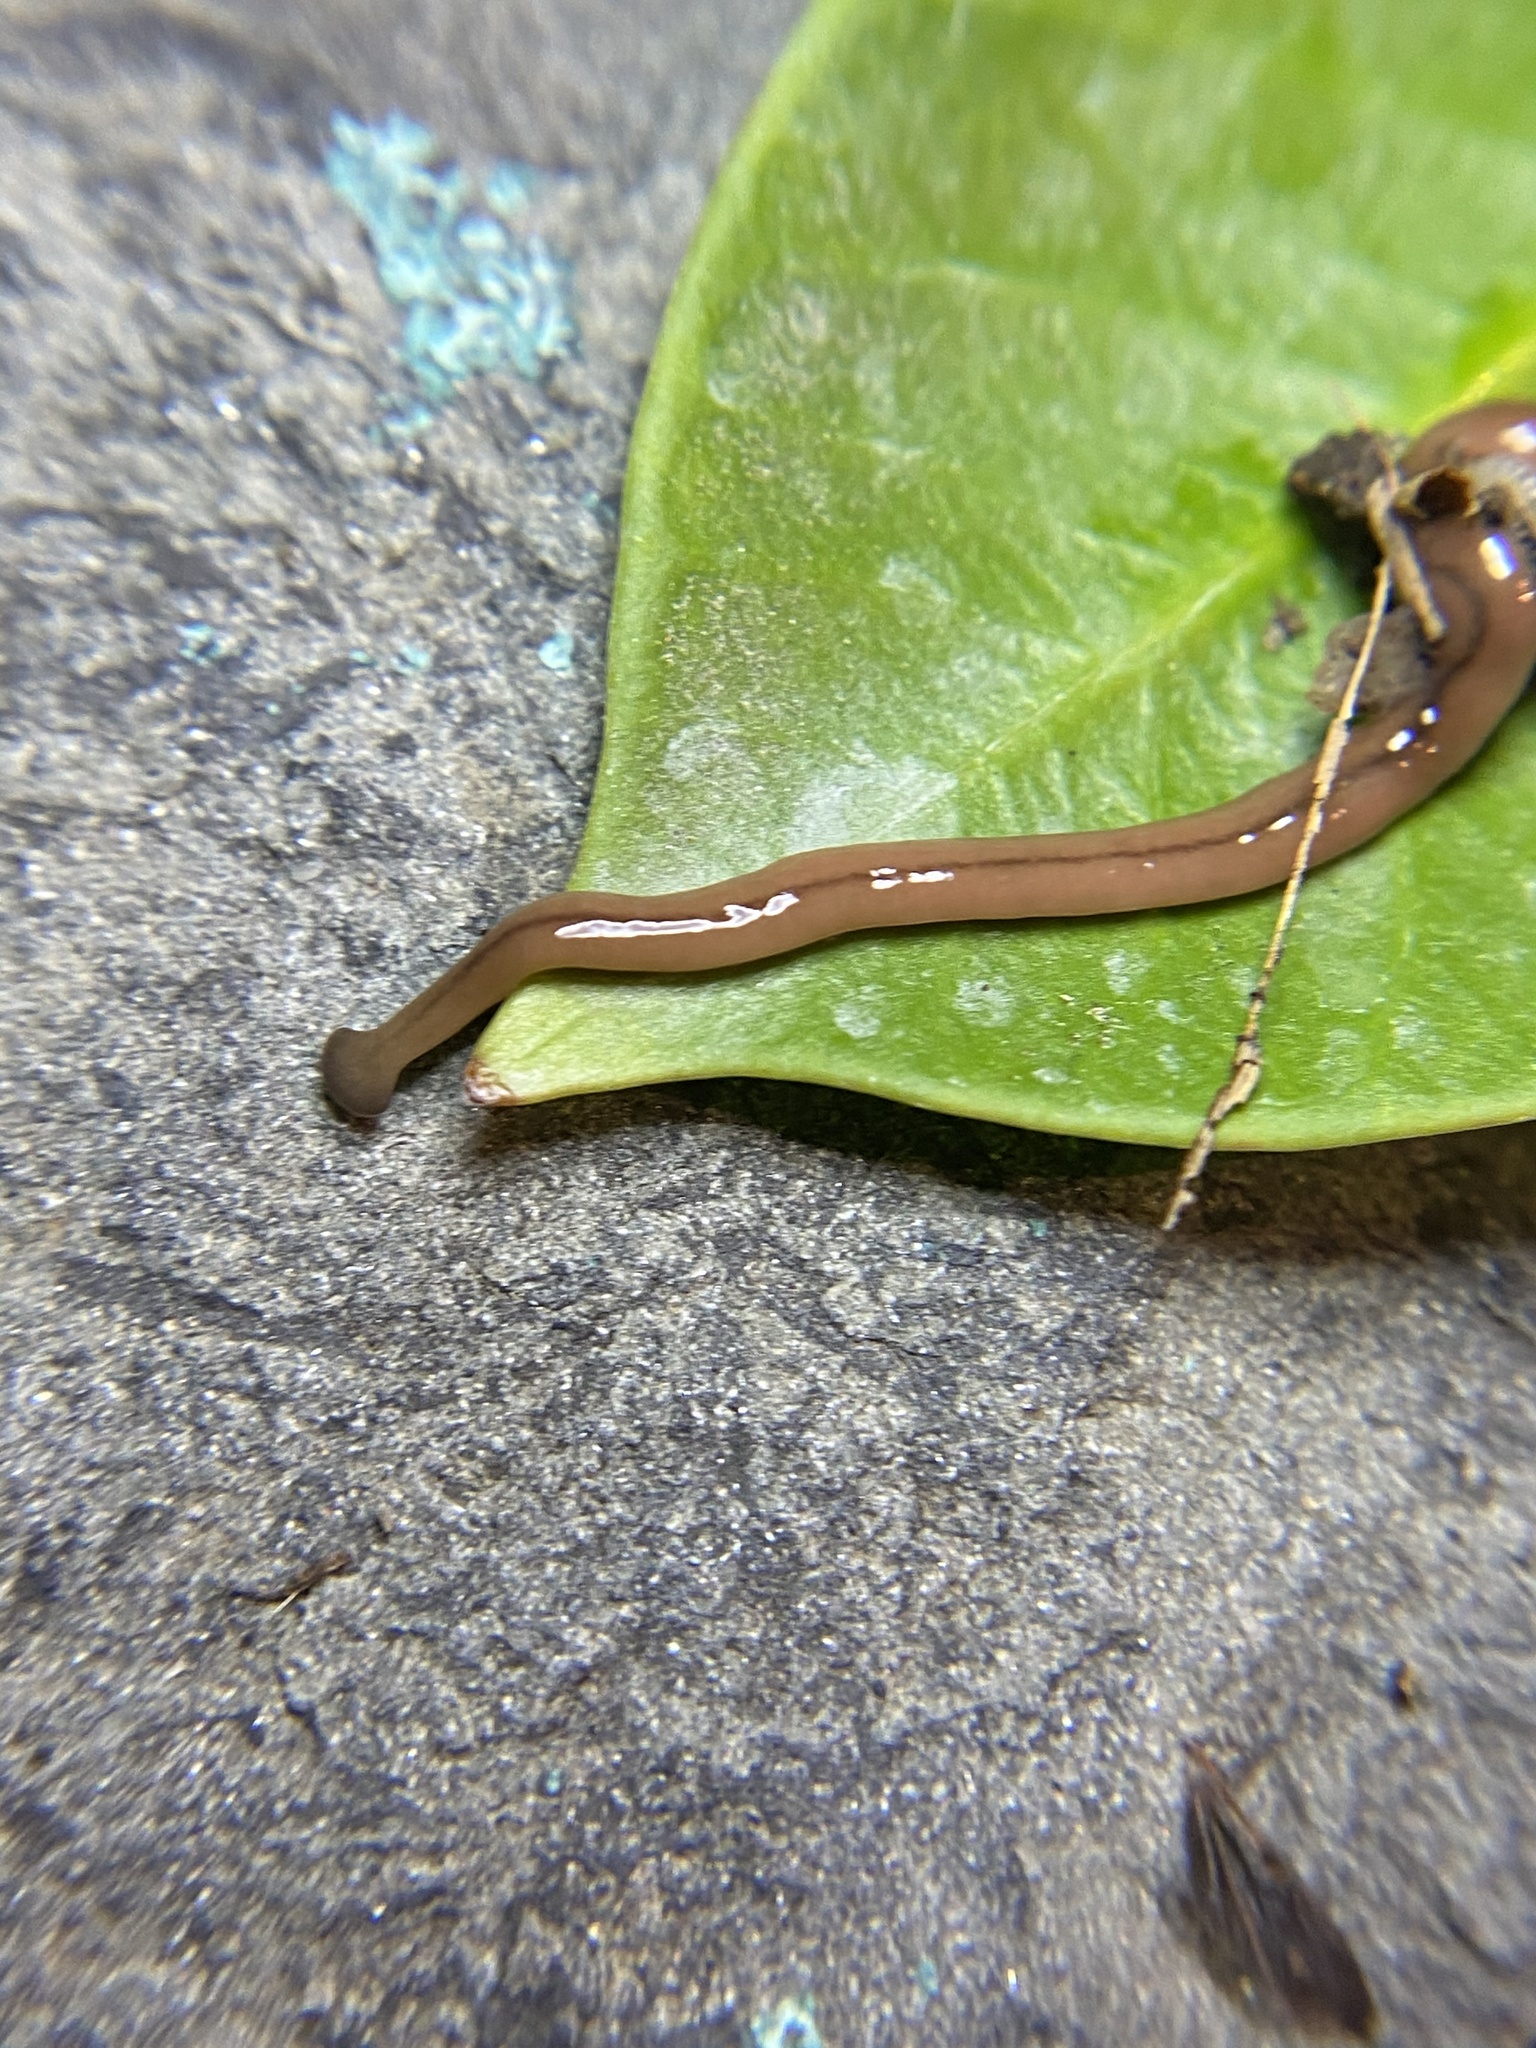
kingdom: Animalia
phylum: Platyhelminthes
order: Tricladida
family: Geoplanidae
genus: Bipalium
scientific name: Bipalium adventitium
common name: Land planarian
